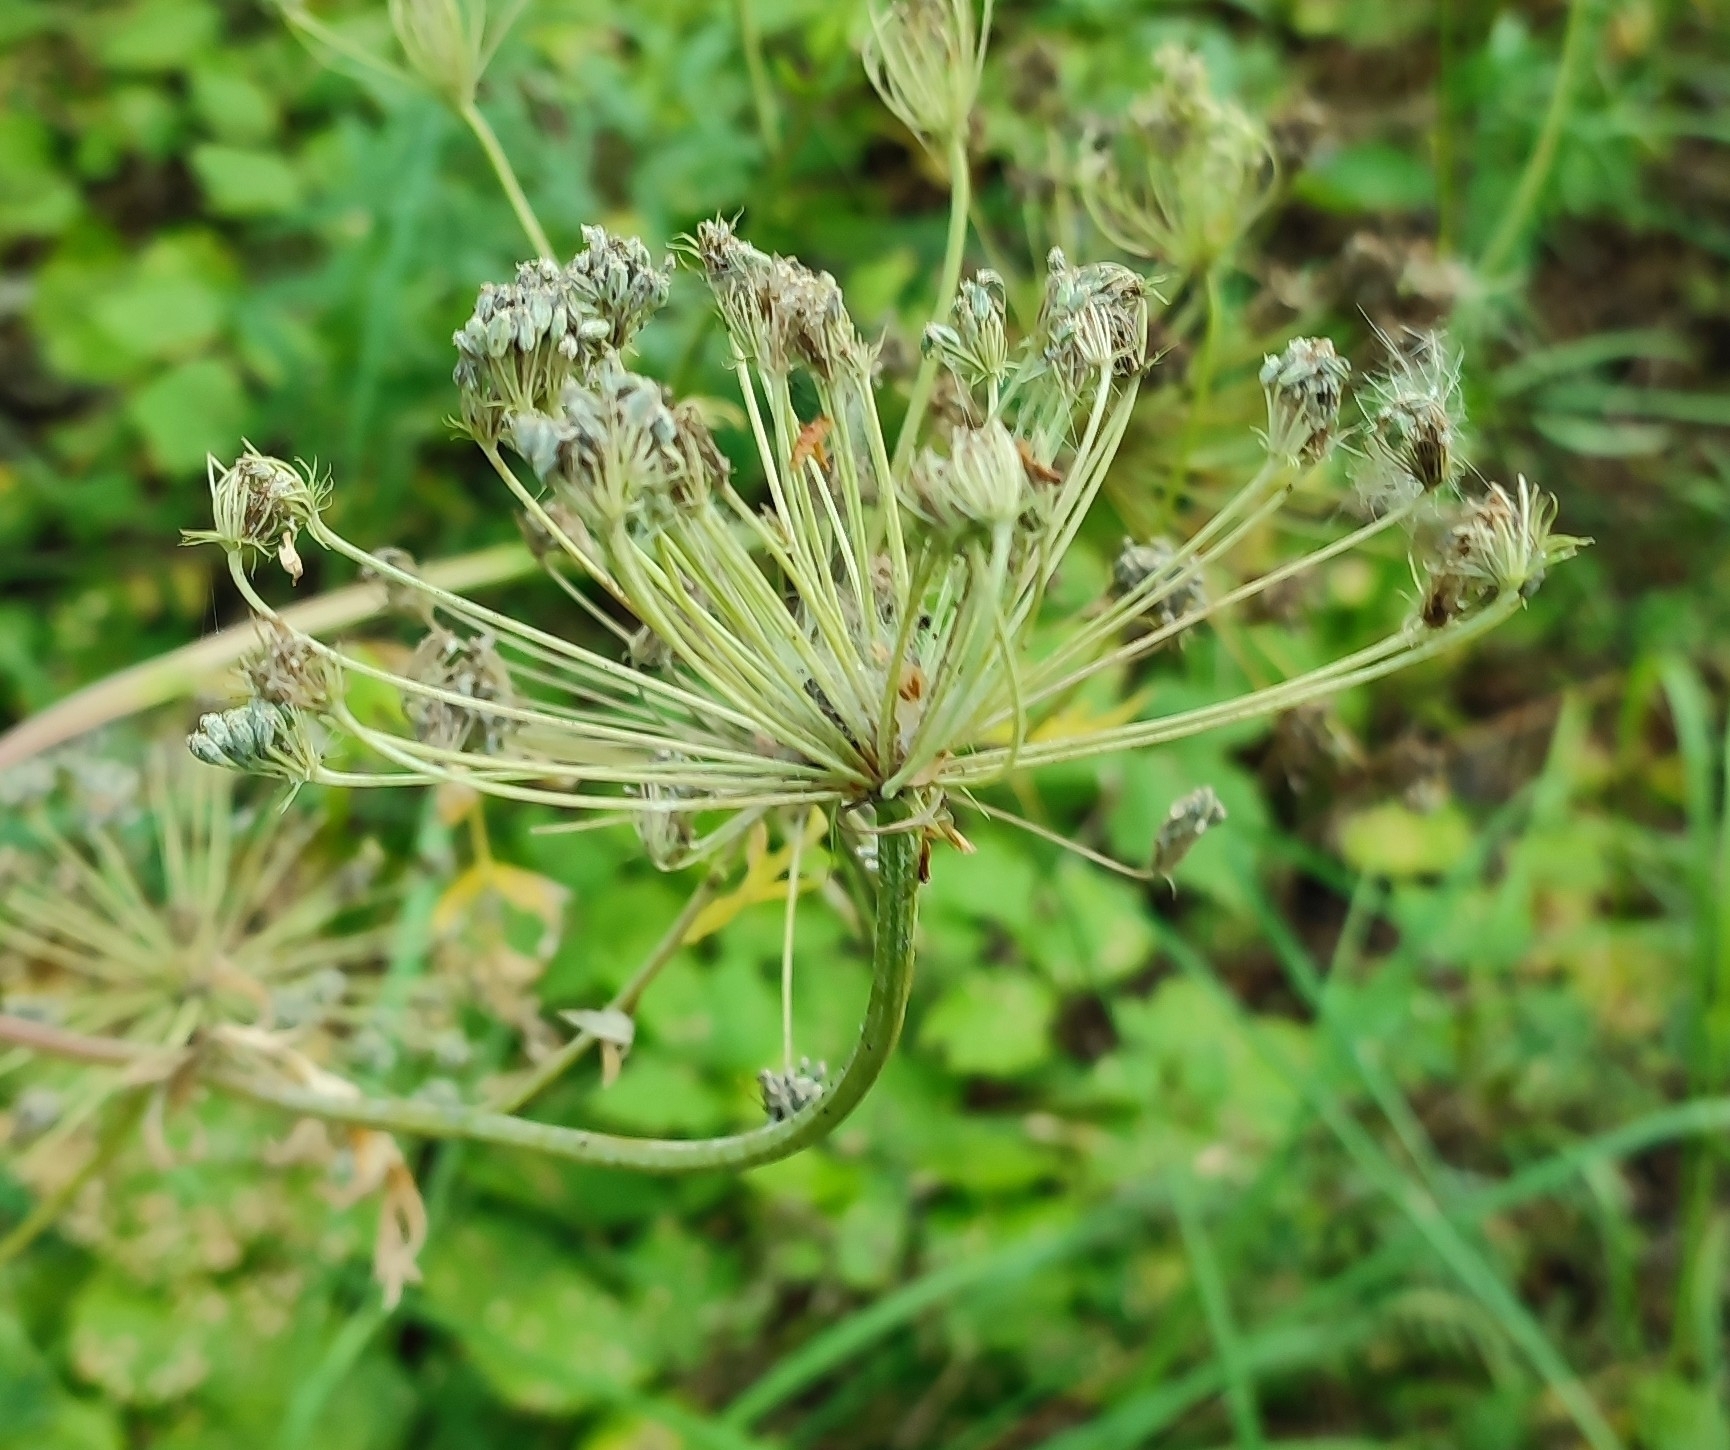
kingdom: Plantae
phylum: Tracheophyta
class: Magnoliopsida
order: Apiales
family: Apiaceae
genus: Seseli
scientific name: Seseli libanotis
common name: Mooncarrot
